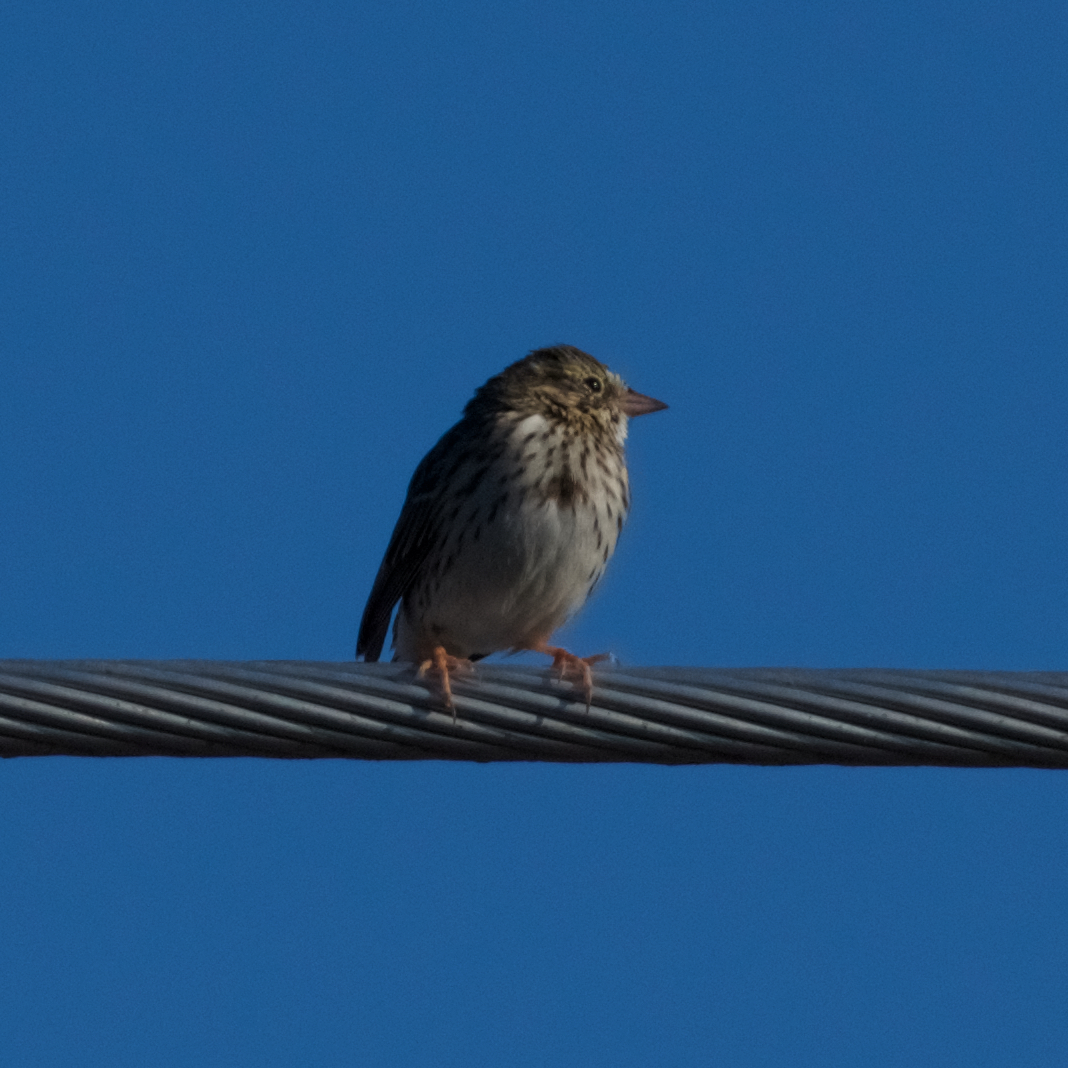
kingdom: Animalia
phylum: Chordata
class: Aves
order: Passeriformes
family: Passerellidae
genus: Passerculus
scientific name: Passerculus sandwichensis
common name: Savannah sparrow
